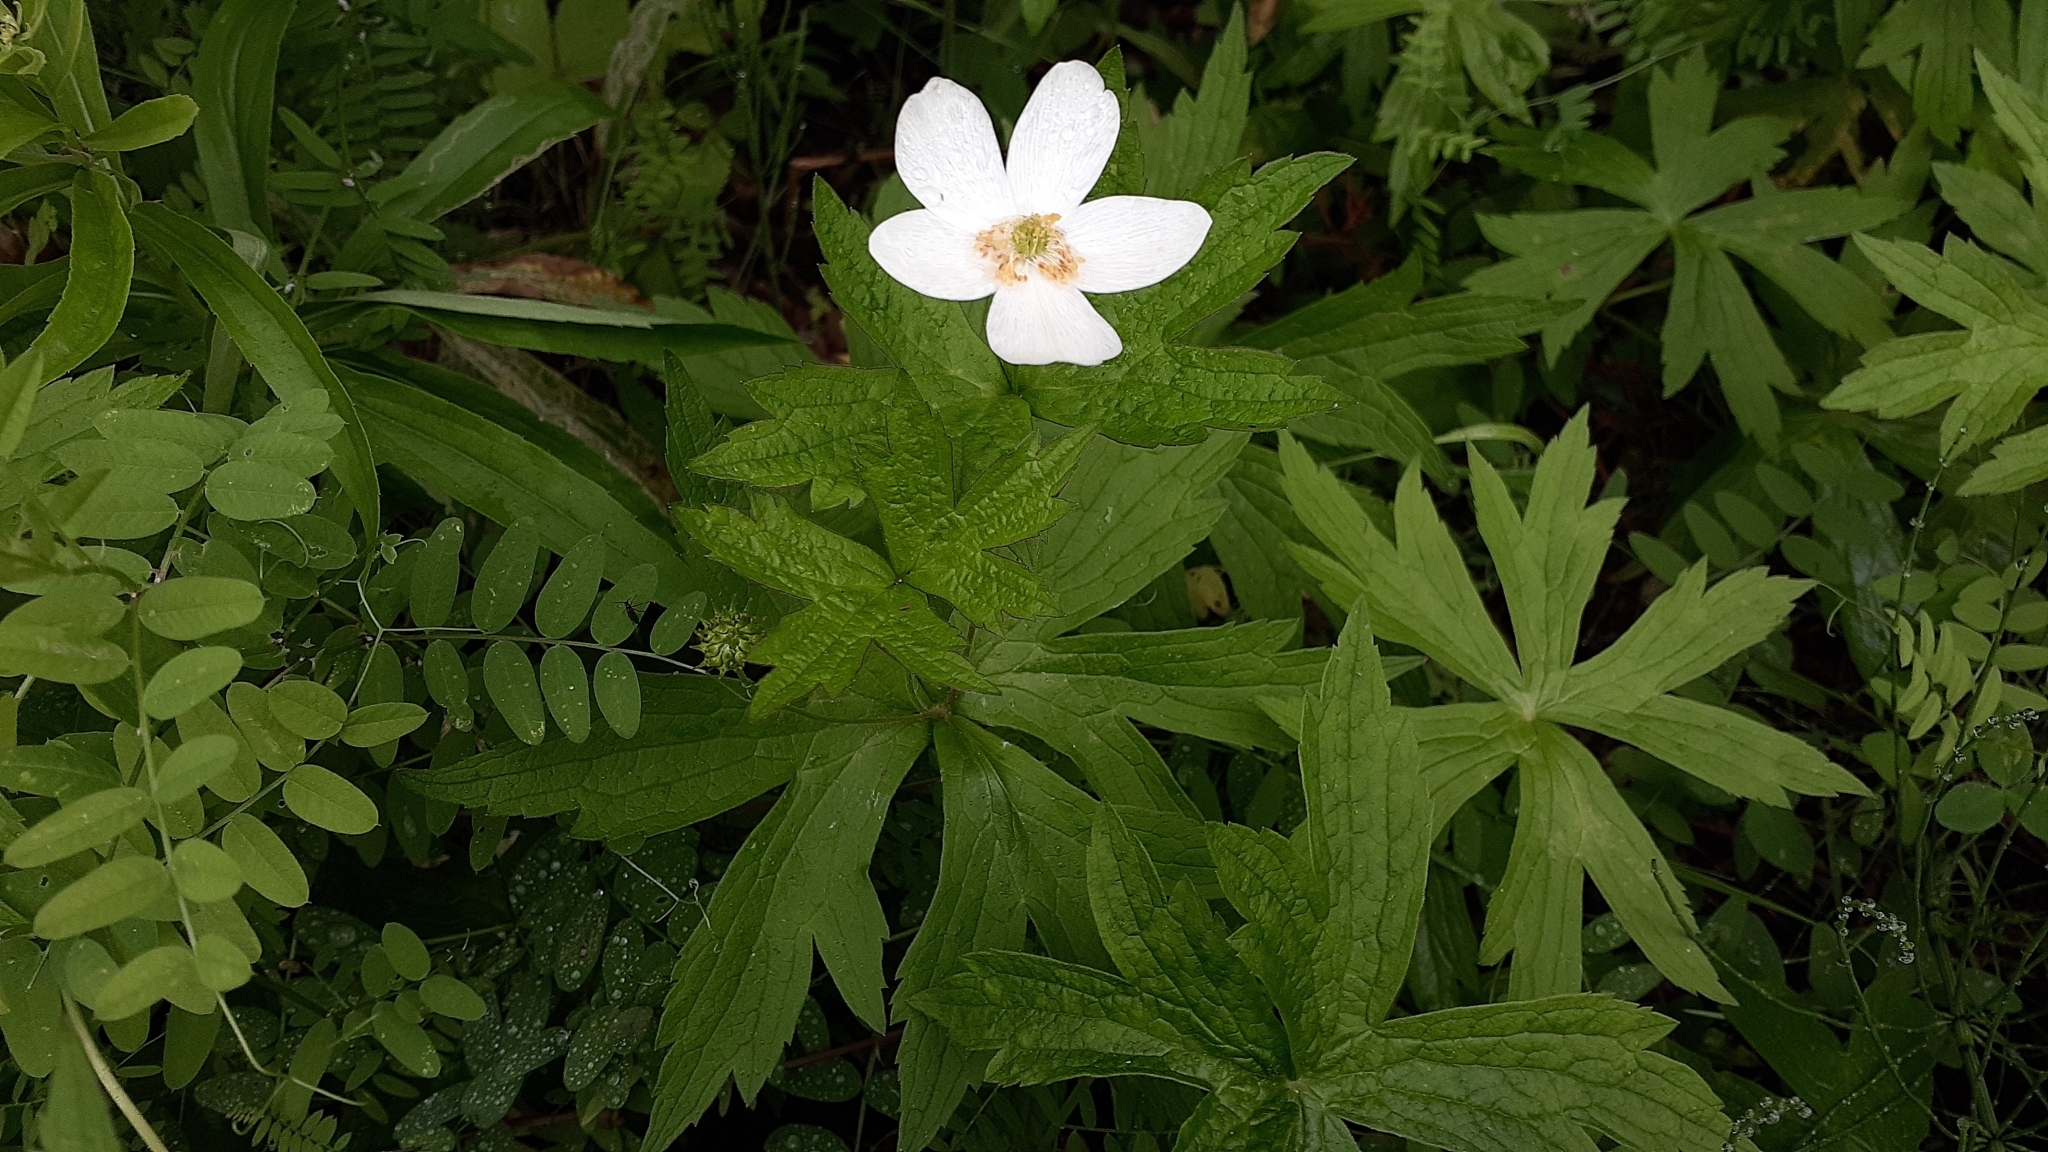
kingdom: Plantae
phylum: Tracheophyta
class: Magnoliopsida
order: Ranunculales
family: Ranunculaceae
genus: Anemonastrum
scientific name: Anemonastrum canadense
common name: Canada anemone
